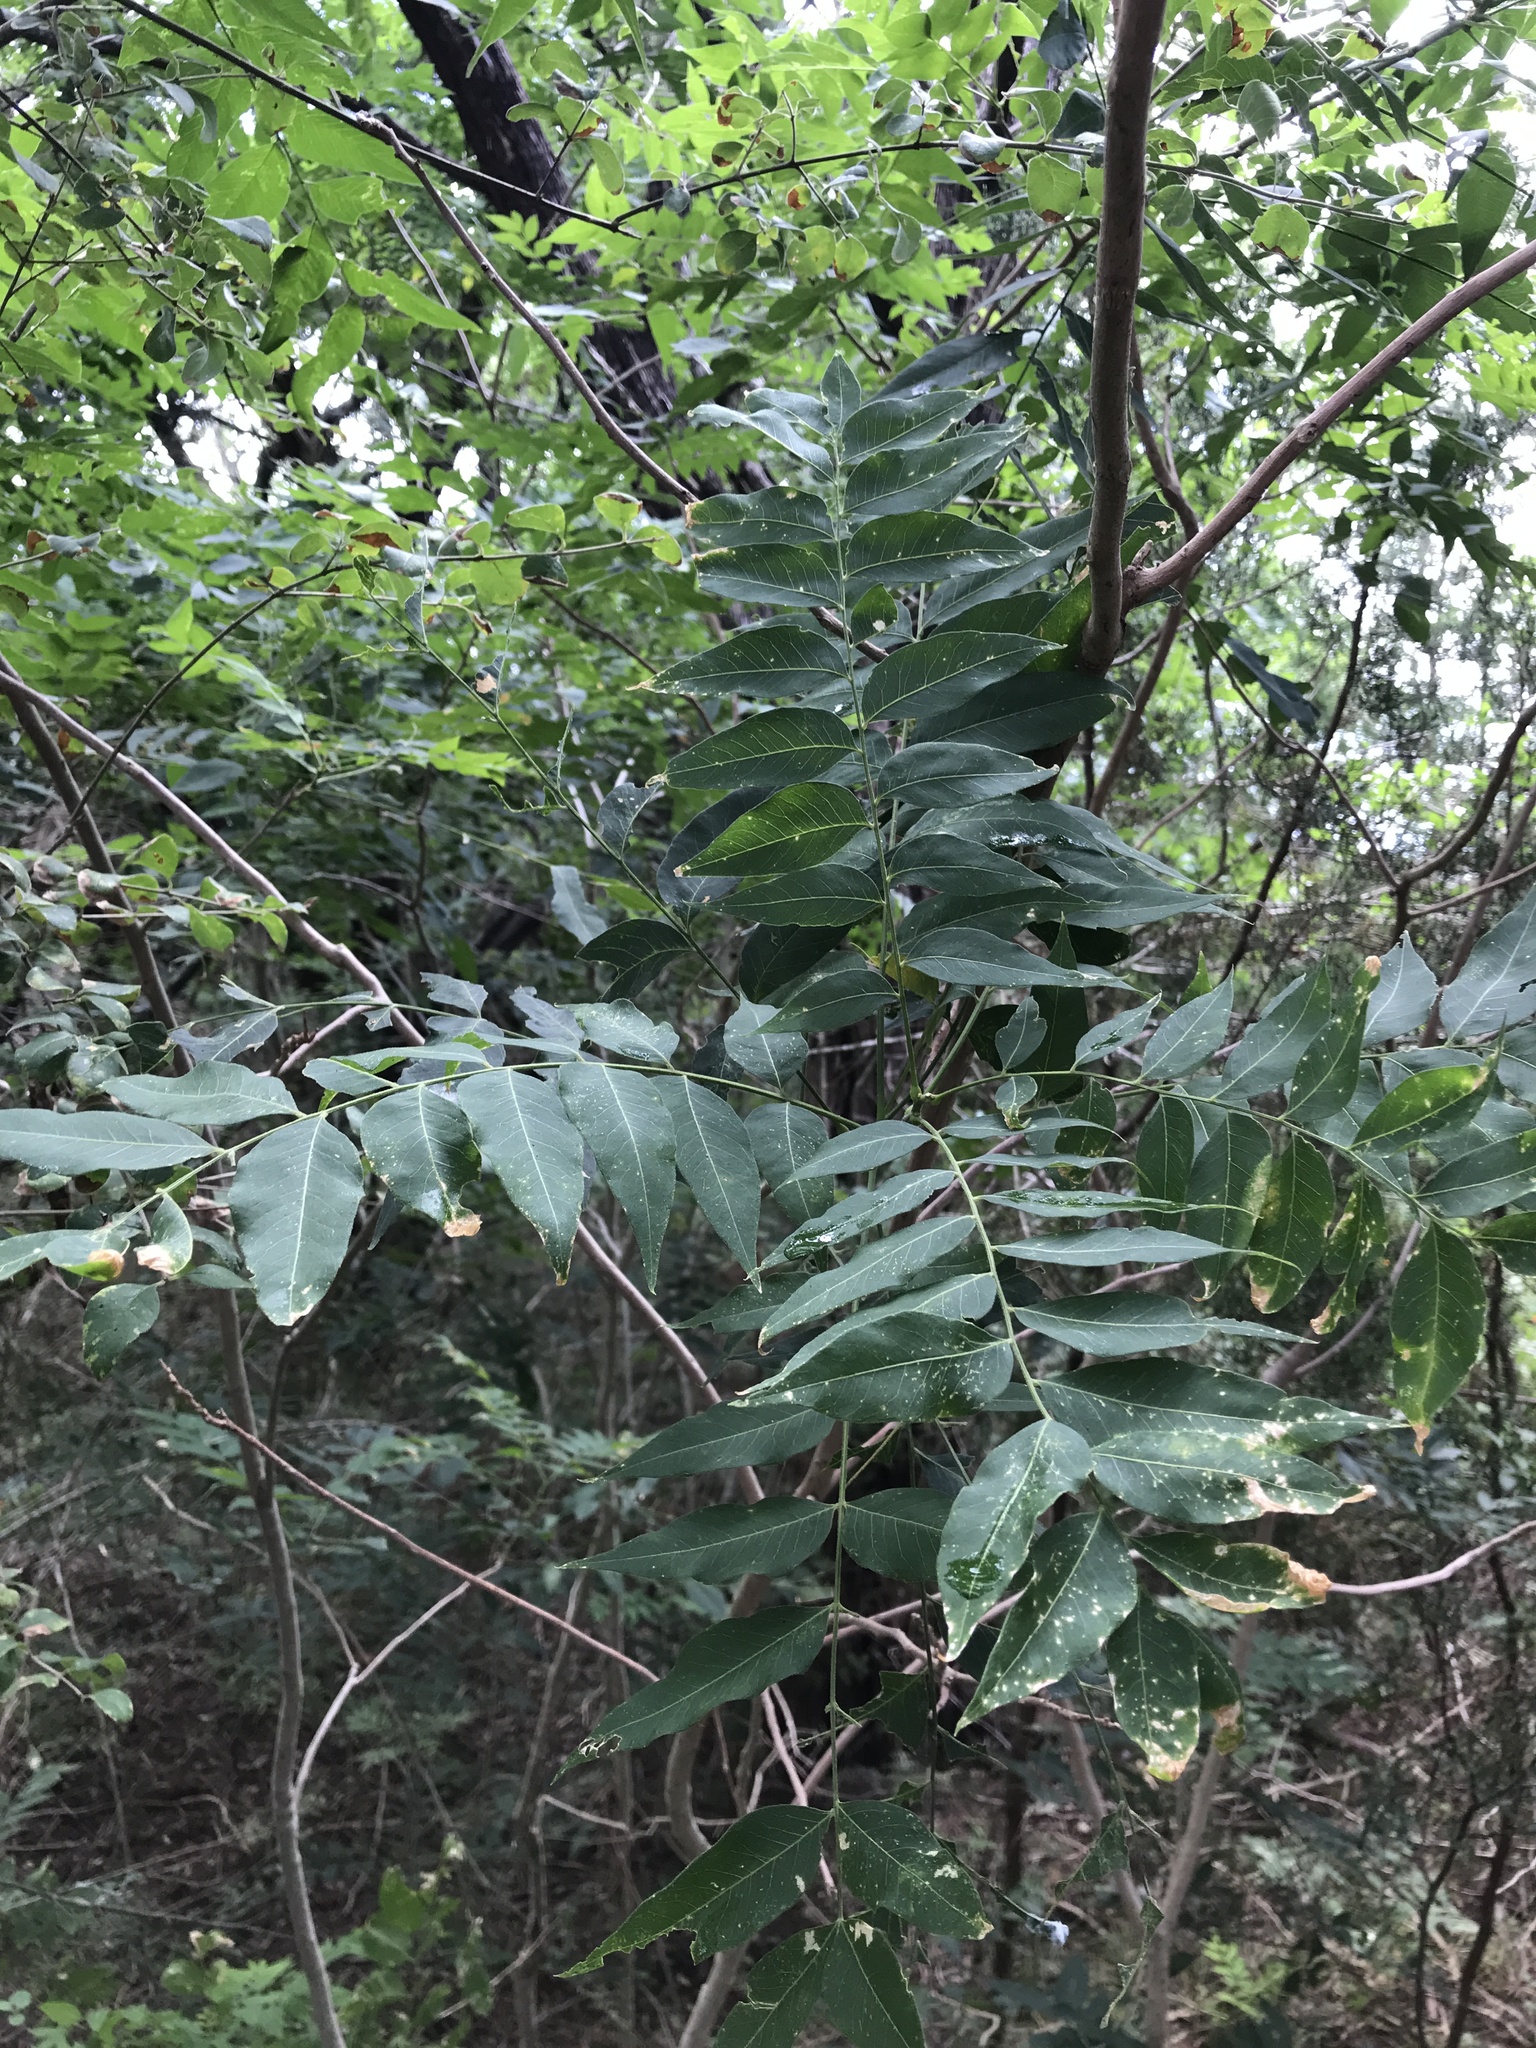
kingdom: Plantae
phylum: Tracheophyta
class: Magnoliopsida
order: Sapindales
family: Sapindaceae
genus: Sapindus
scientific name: Sapindus drummondii
